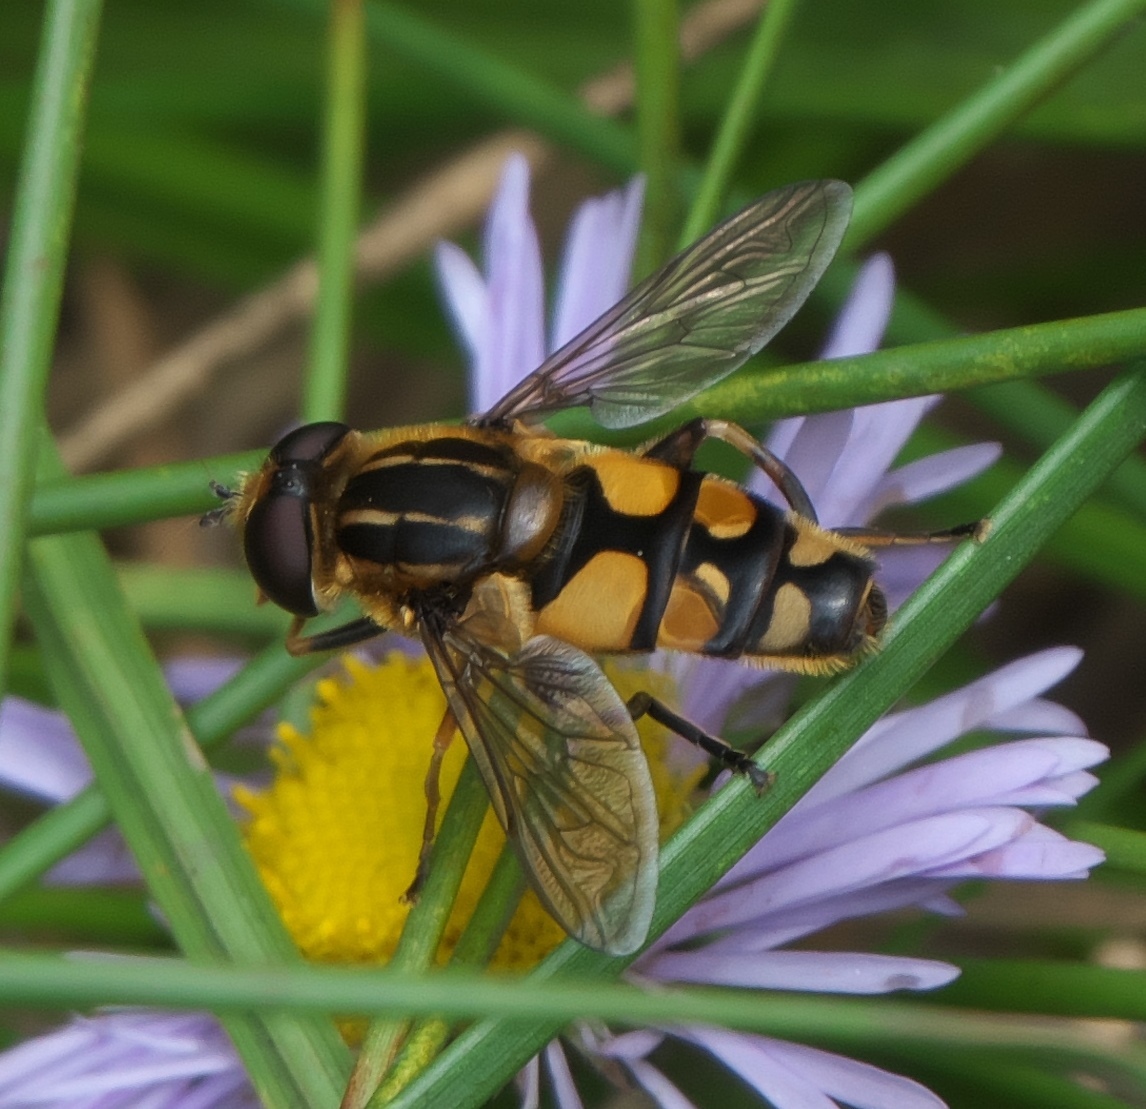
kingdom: Animalia
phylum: Arthropoda
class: Insecta
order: Diptera
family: Syrphidae
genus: Helophilus
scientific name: Helophilus obscurus
